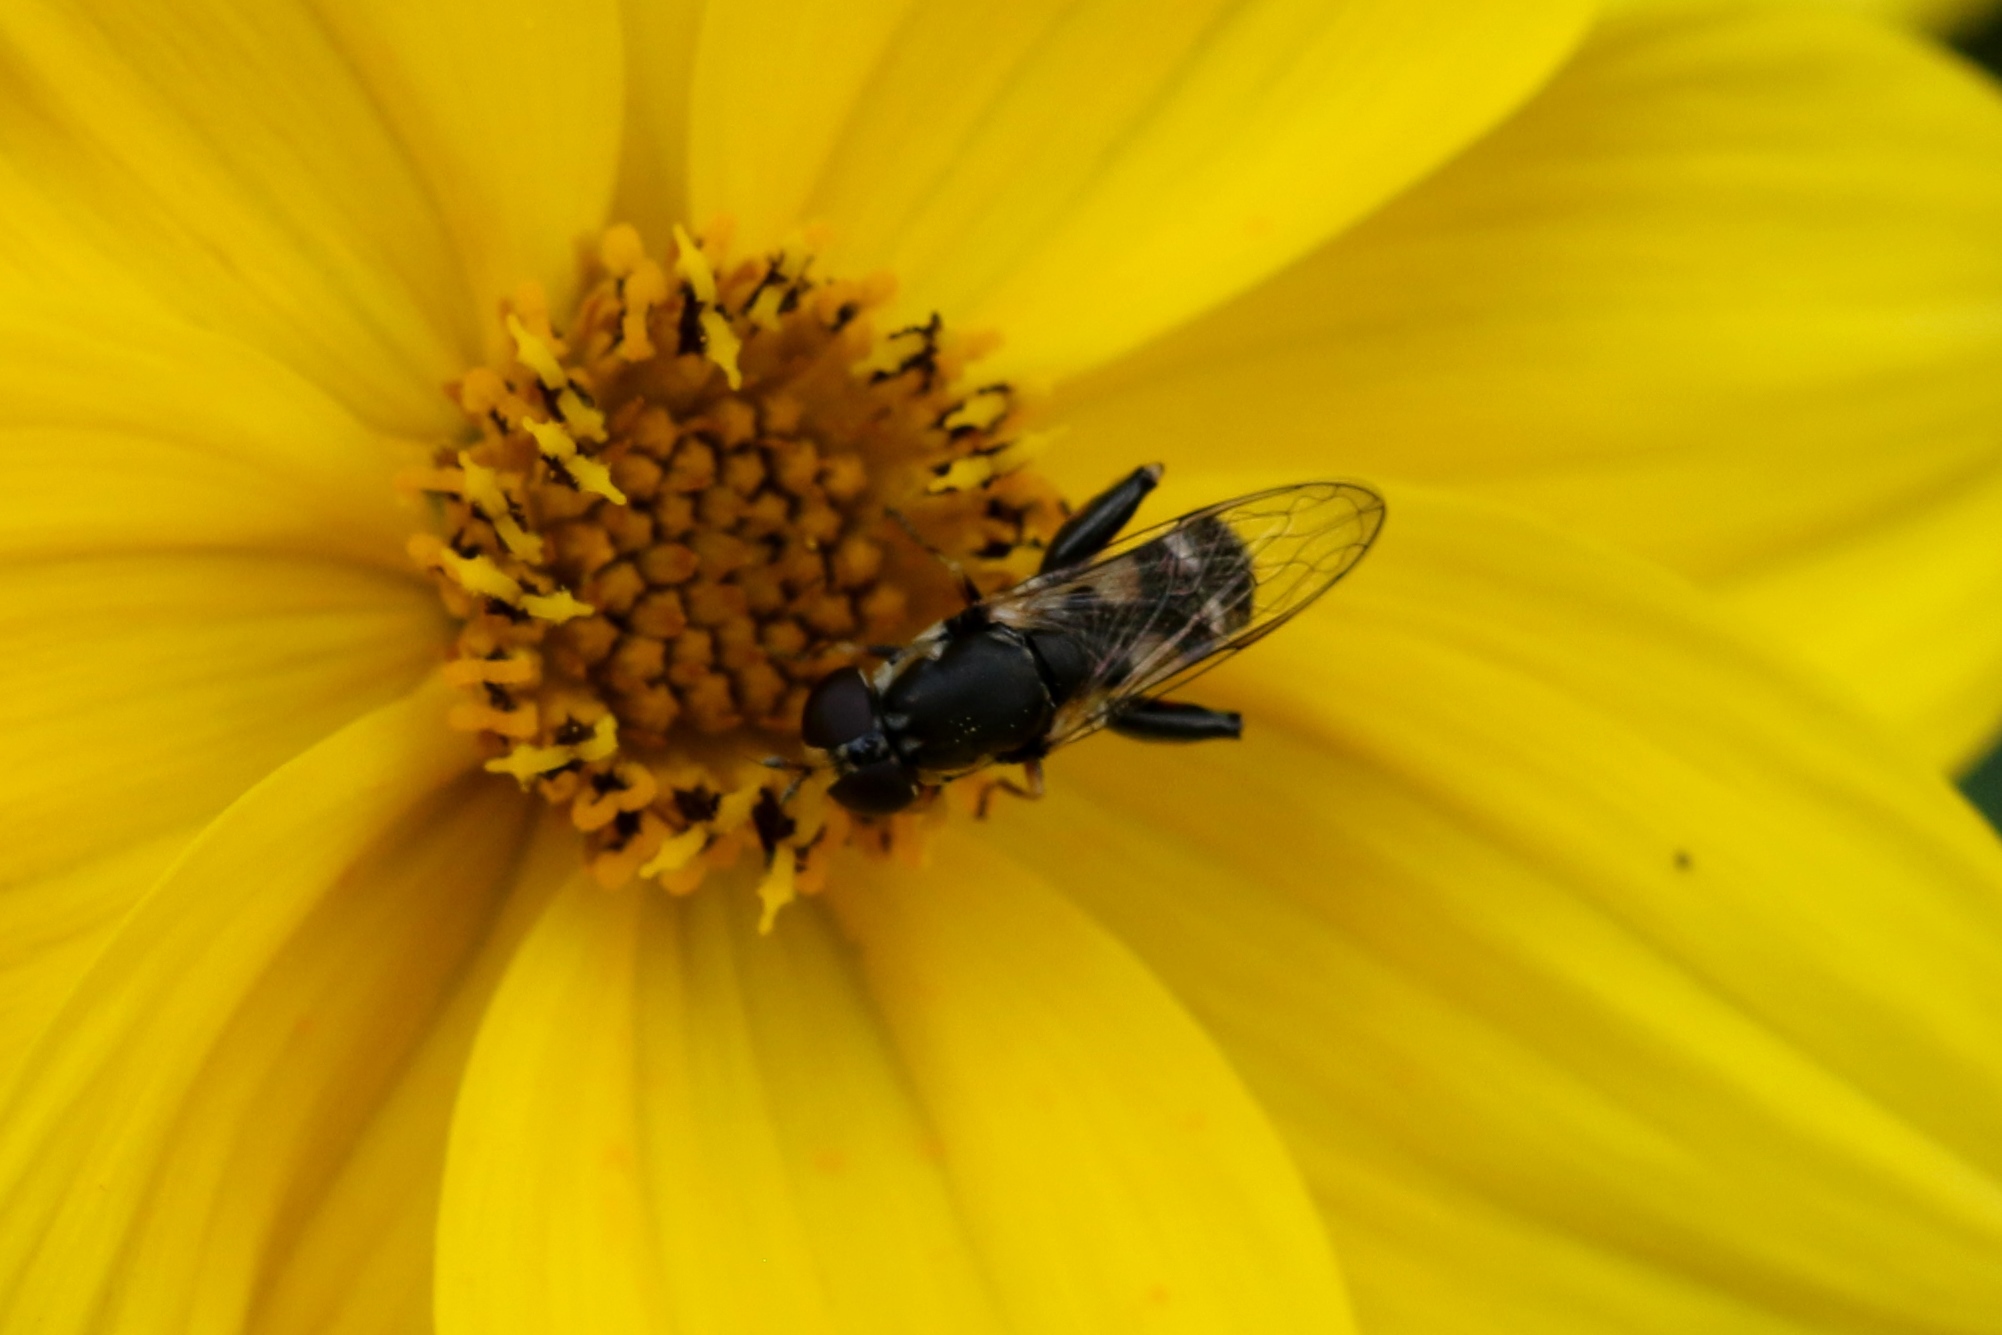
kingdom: Animalia
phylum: Arthropoda
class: Insecta
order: Diptera
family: Syrphidae
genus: Syritta
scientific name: Syritta pipiens
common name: Hover fly
